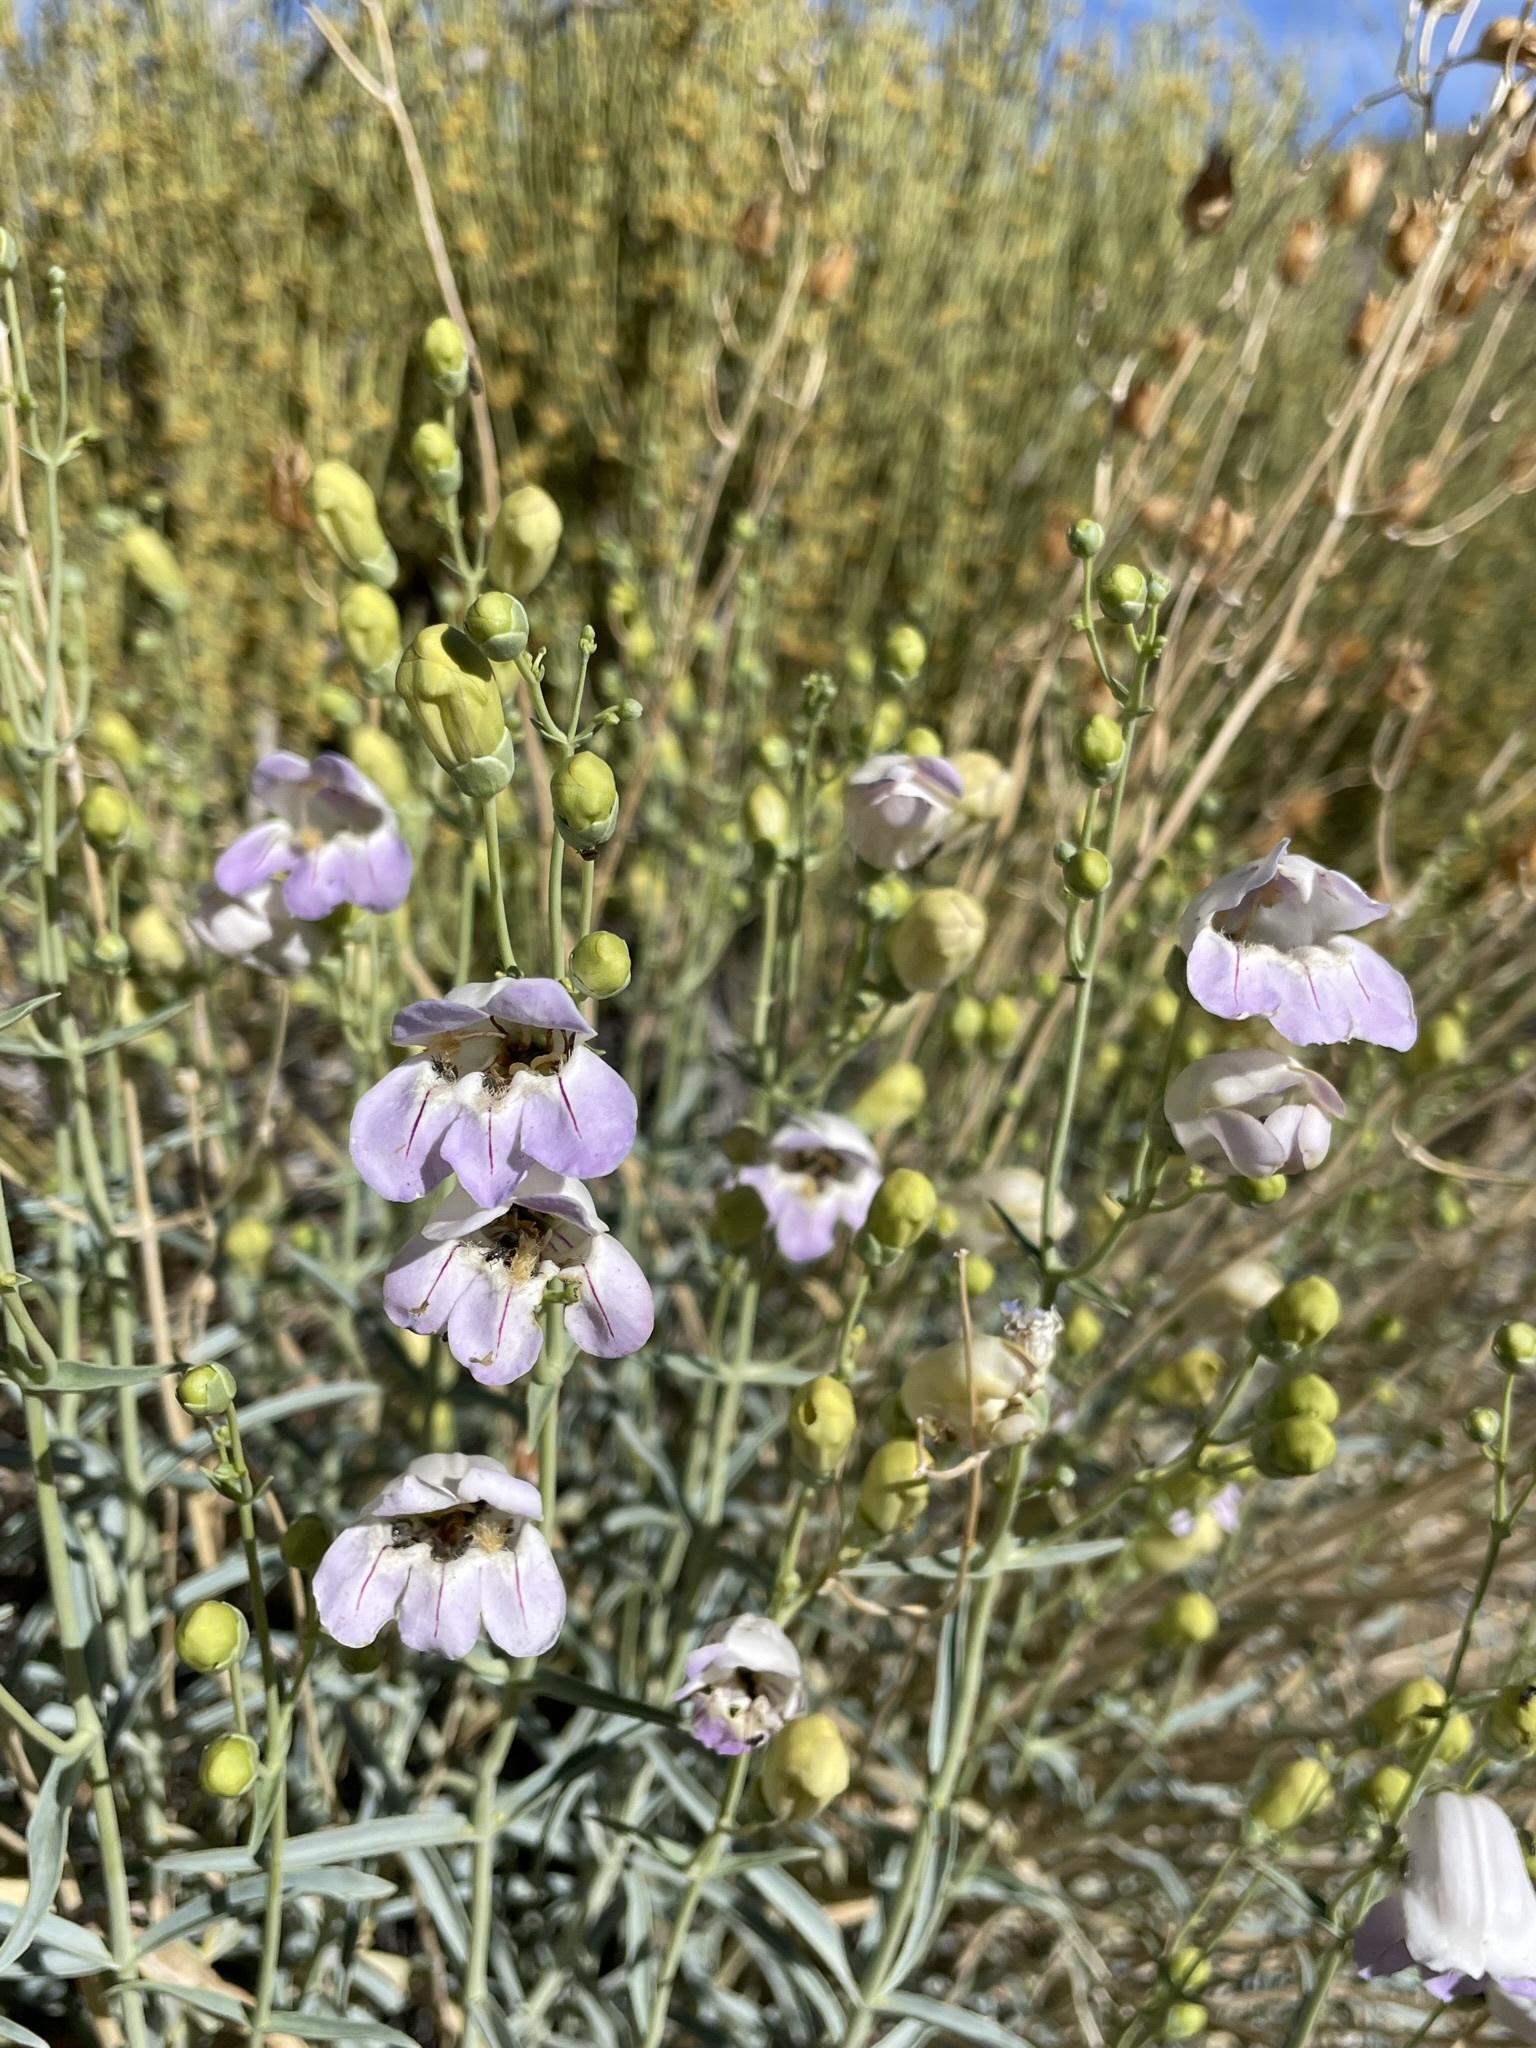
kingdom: Plantae
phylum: Tracheophyta
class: Magnoliopsida
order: Lamiales
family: Plantaginaceae
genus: Penstemon
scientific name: Penstemon fruticiformis
